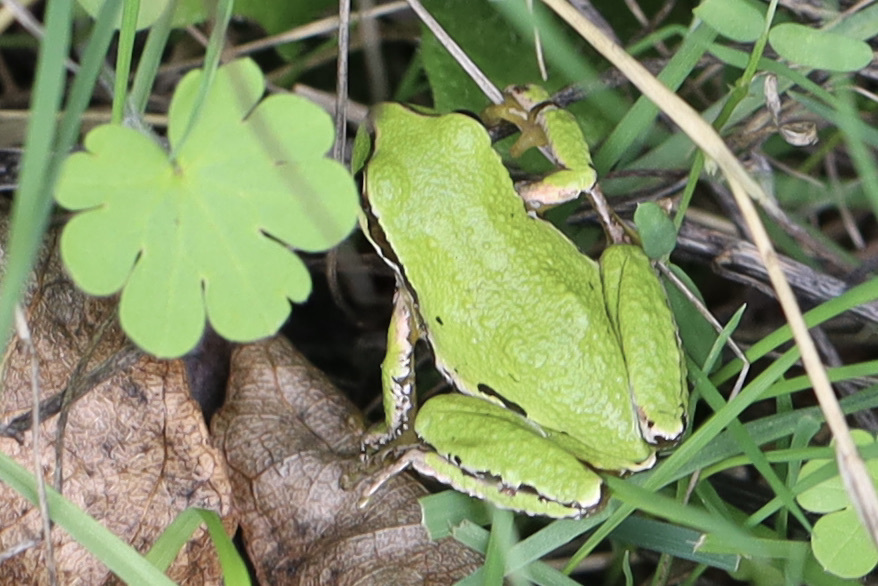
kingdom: Animalia
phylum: Chordata
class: Amphibia
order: Anura
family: Hylidae
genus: Pseudacris
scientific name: Pseudacris regilla
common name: Pacific chorus frog
